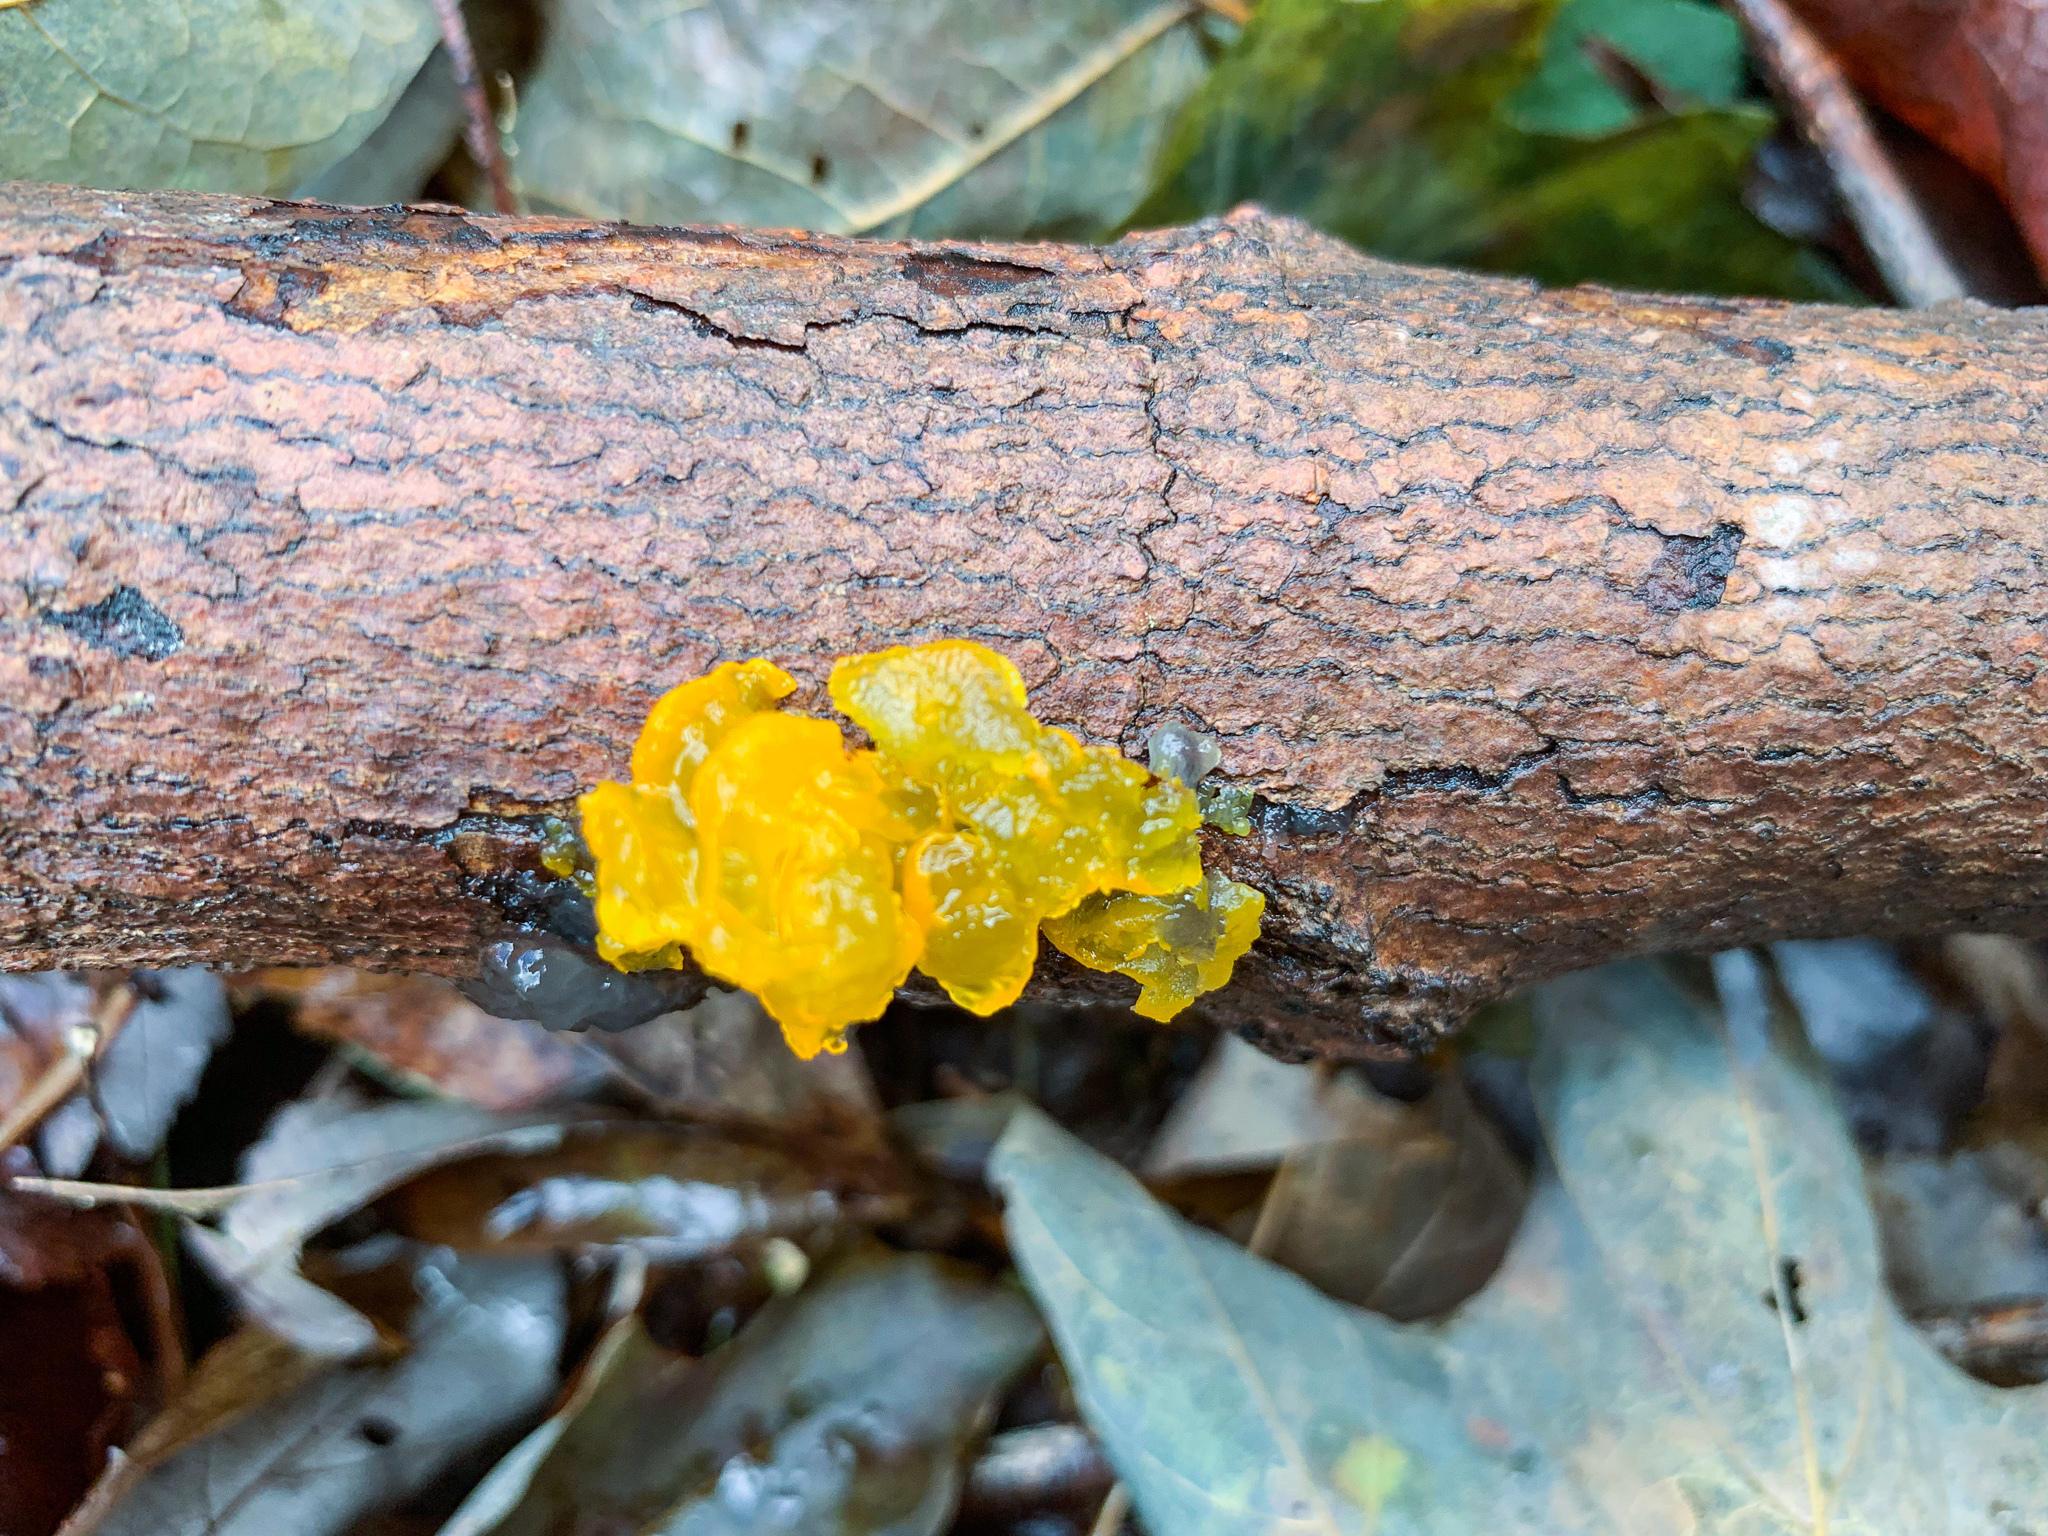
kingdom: Fungi
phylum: Basidiomycota
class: Tremellomycetes
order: Tremellales
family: Tremellaceae
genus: Tremella
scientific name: Tremella mesenterica
